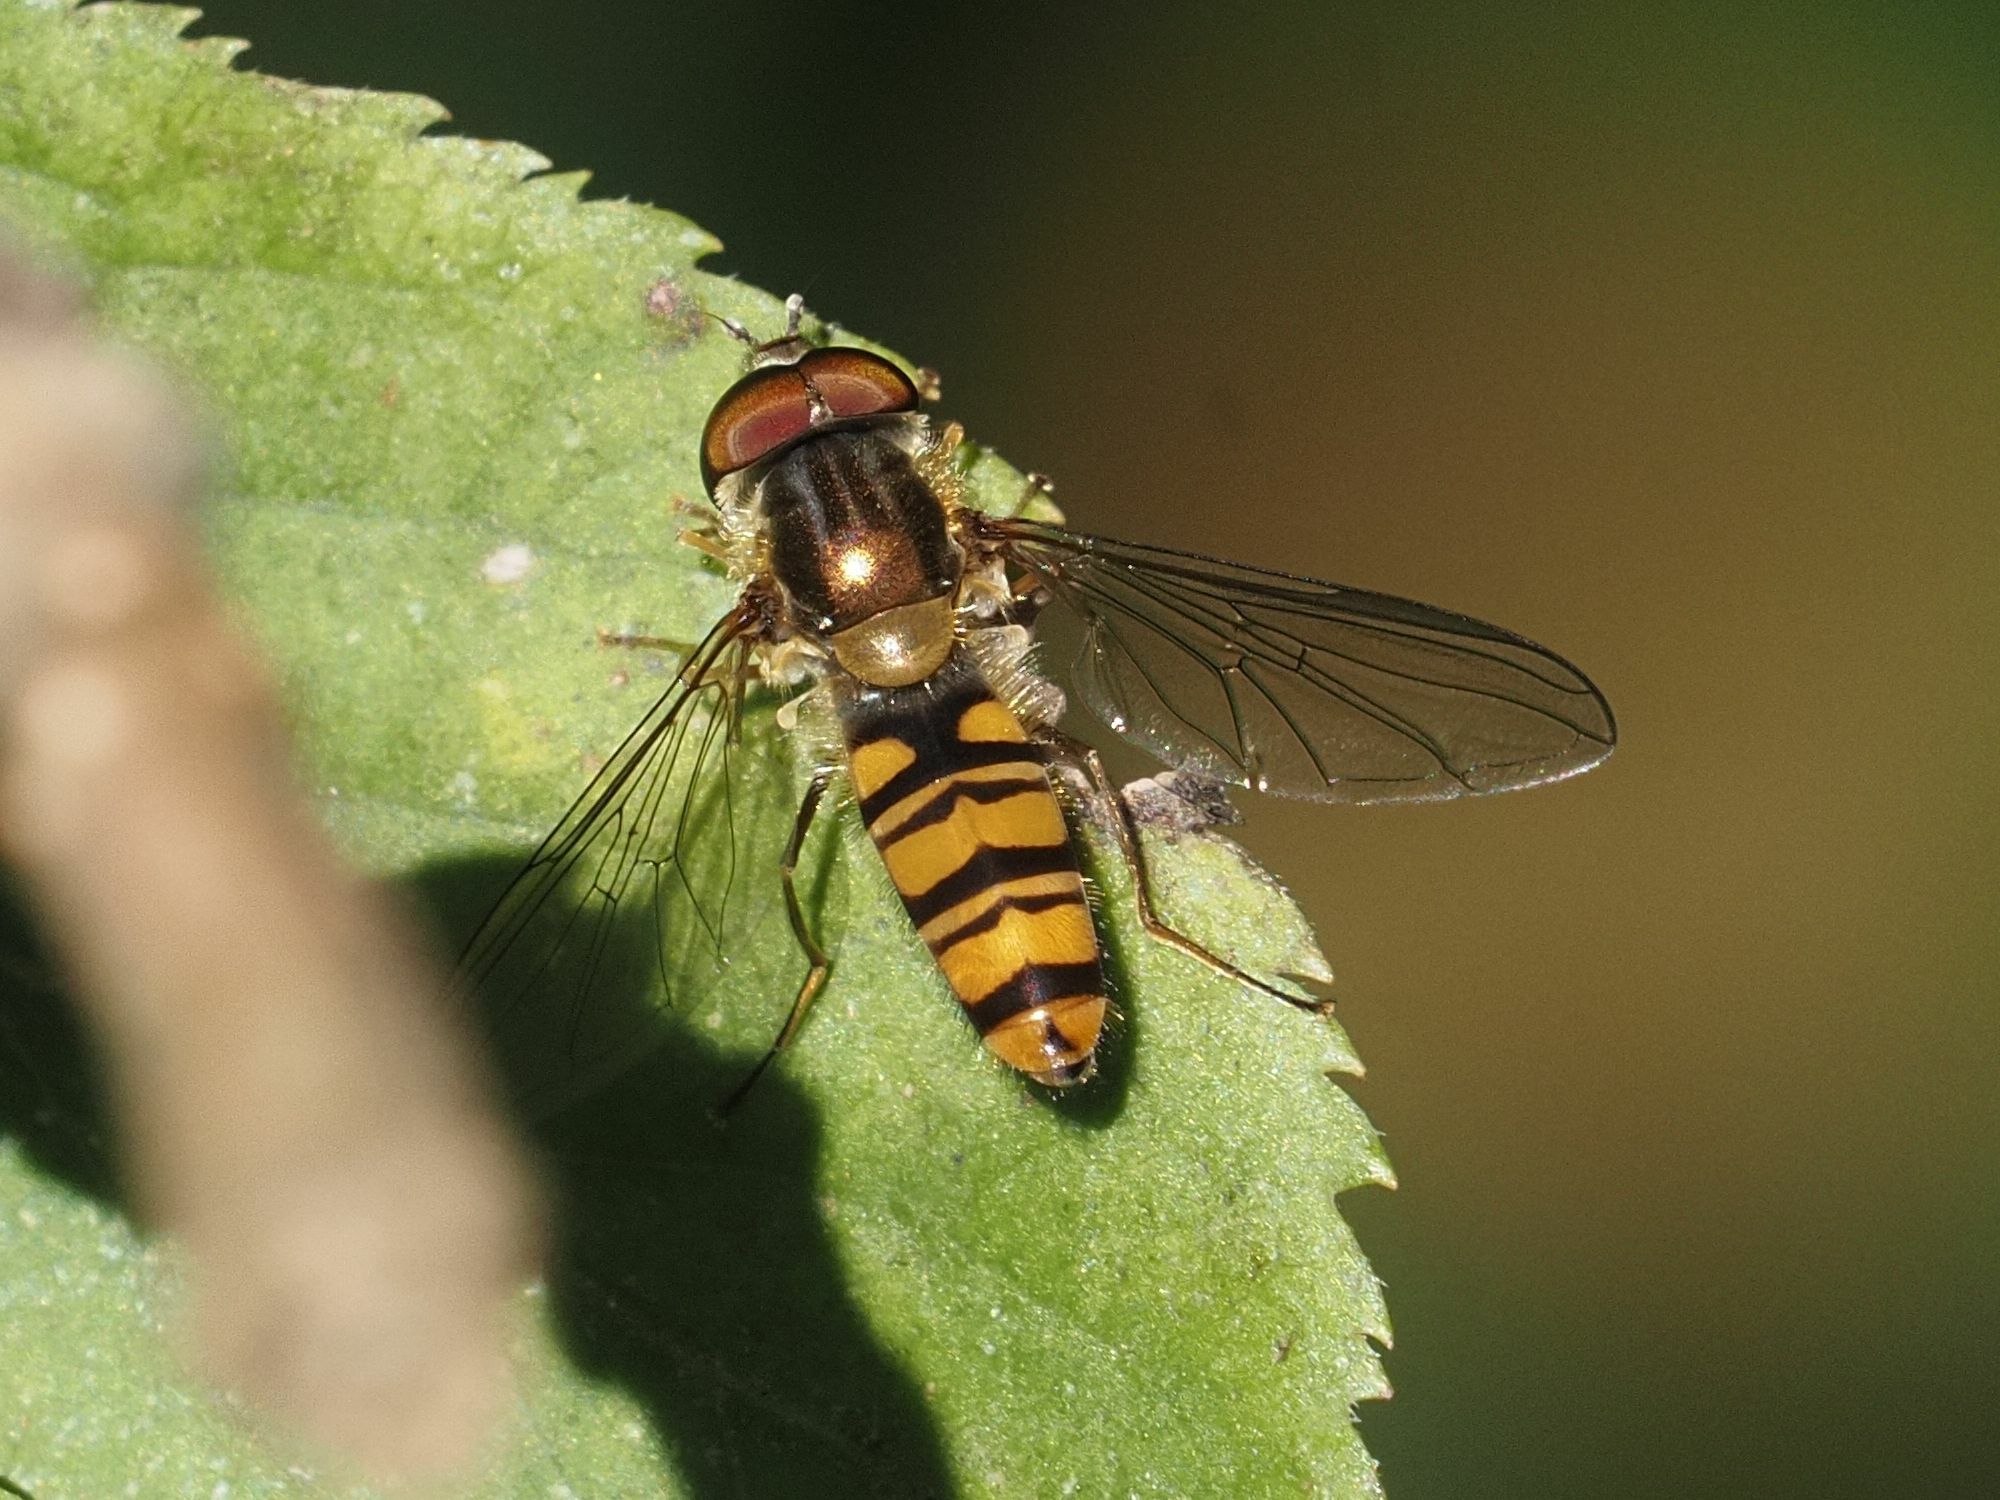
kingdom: Animalia
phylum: Arthropoda
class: Insecta
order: Diptera
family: Syrphidae
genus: Episyrphus
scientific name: Episyrphus balteatus
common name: Marmalade hoverfly
